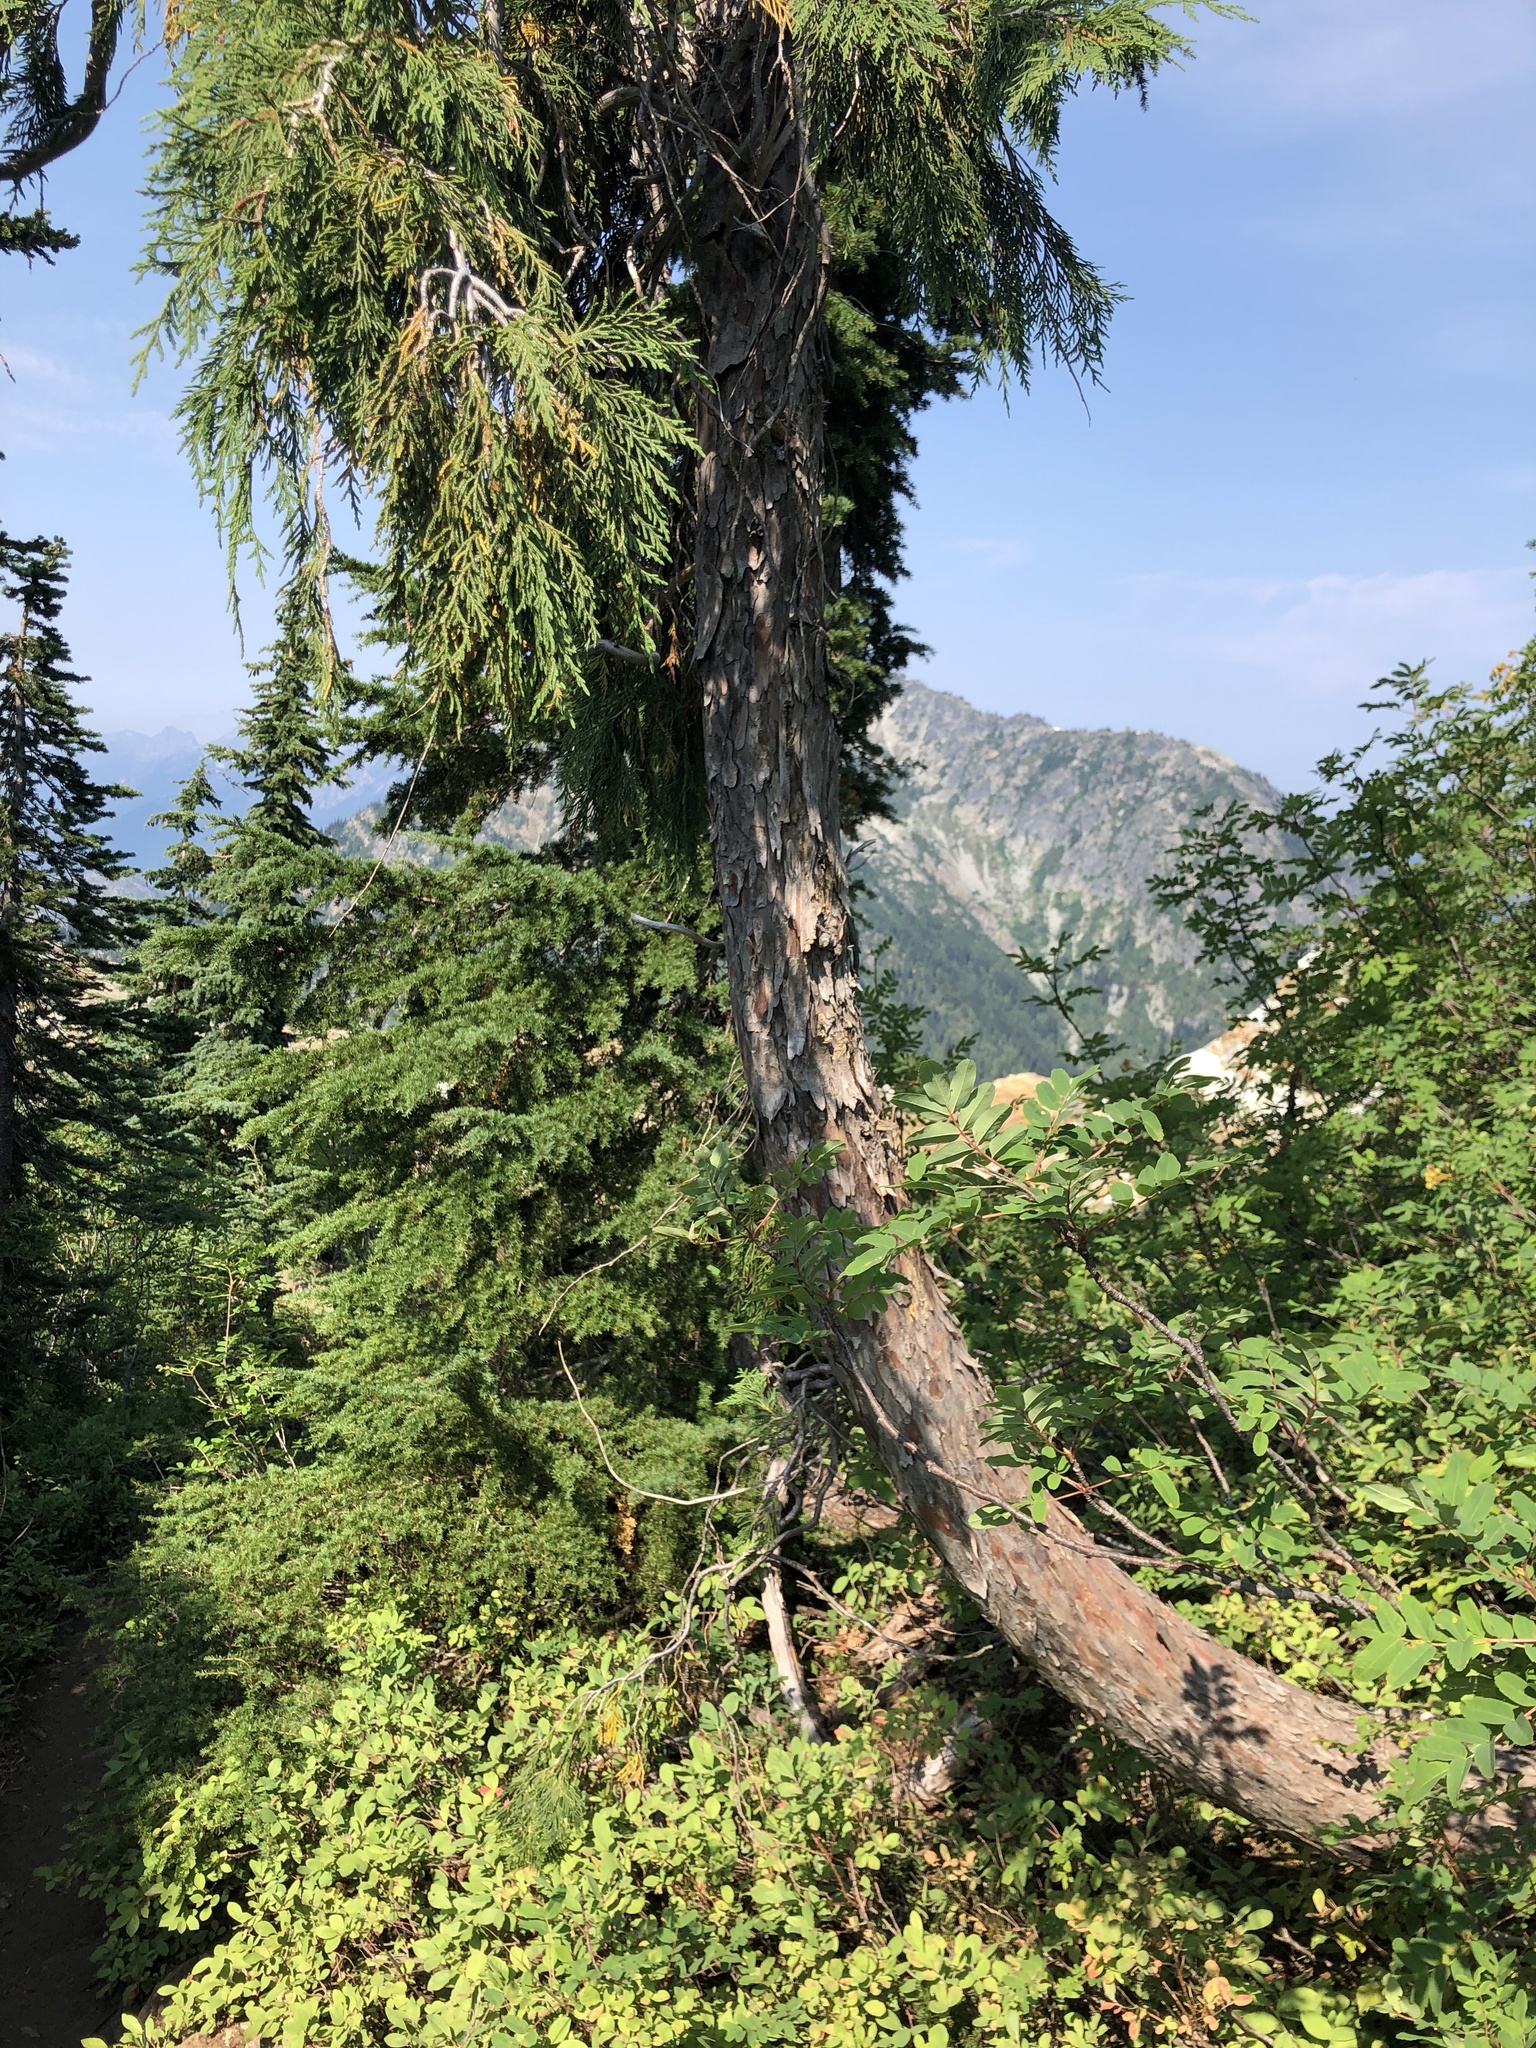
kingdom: Plantae
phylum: Tracheophyta
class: Pinopsida
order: Pinales
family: Cupressaceae
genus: Xanthocyparis
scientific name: Xanthocyparis nootkatensis
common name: Nootka cypress
